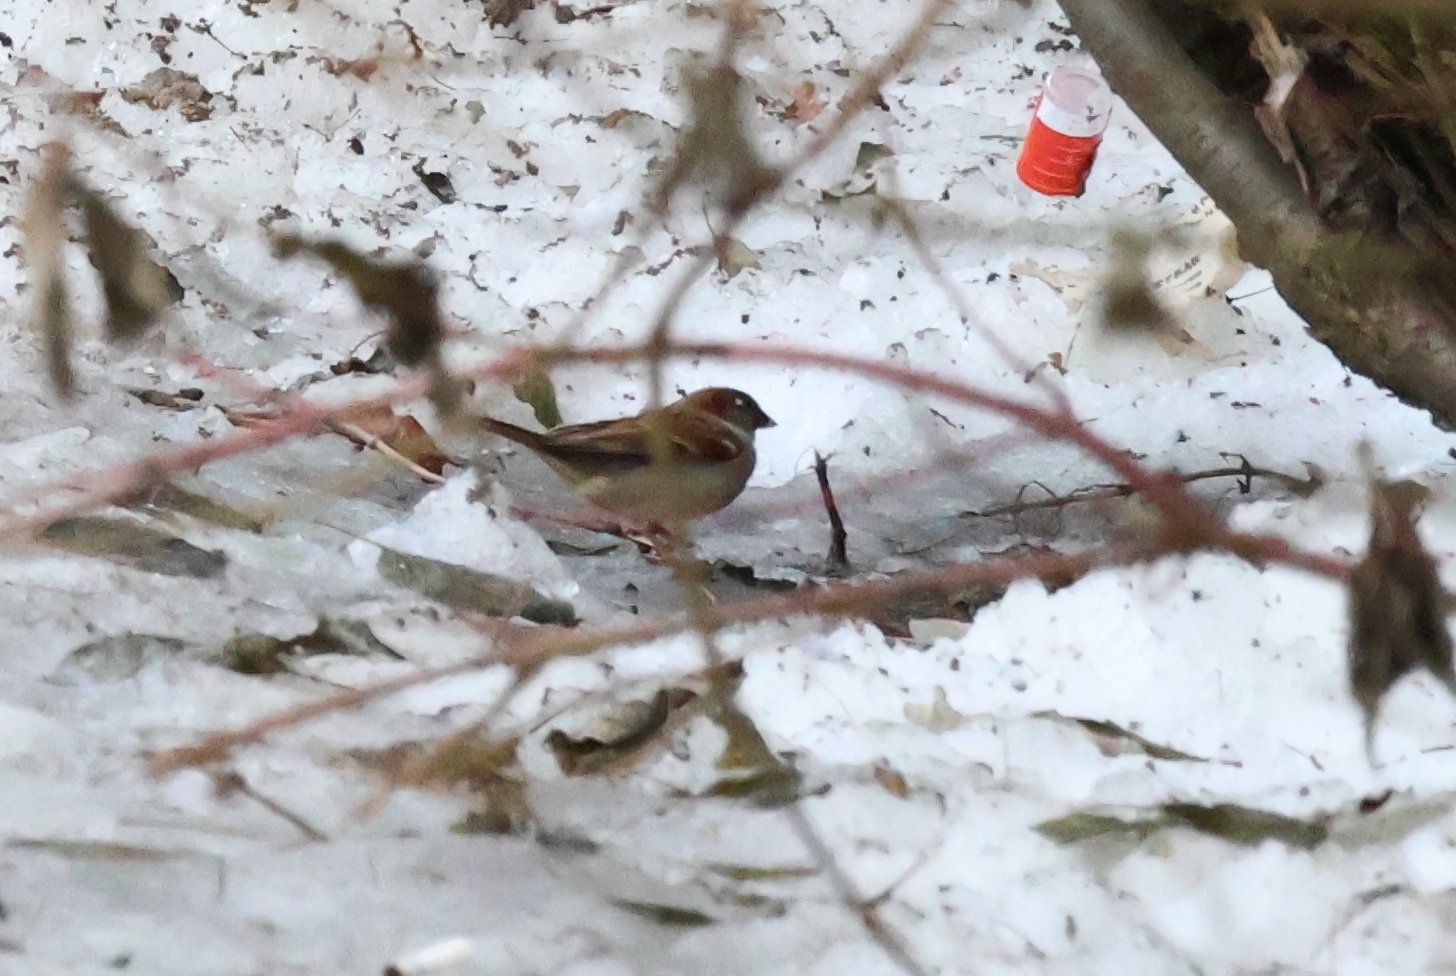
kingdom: Animalia
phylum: Chordata
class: Aves
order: Passeriformes
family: Passeridae
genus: Passer
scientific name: Passer domesticus
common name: House sparrow
